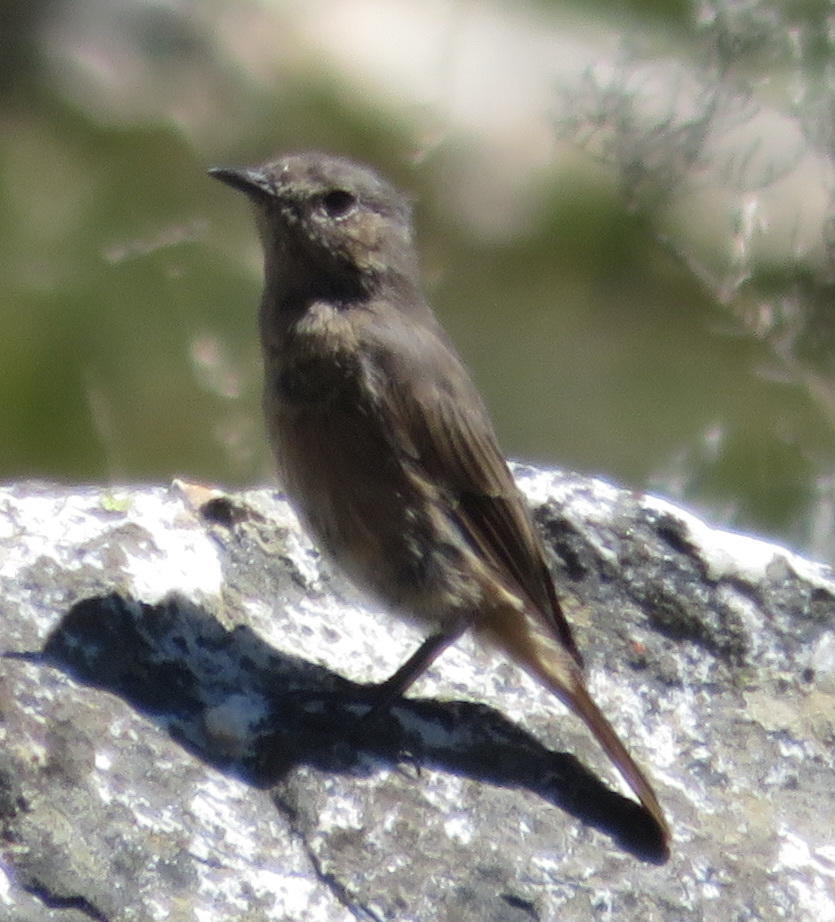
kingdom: Animalia
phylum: Chordata
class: Aves
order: Passeriformes
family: Muscicapidae
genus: Oenanthe
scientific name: Oenanthe familiaris
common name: Familiar chat
